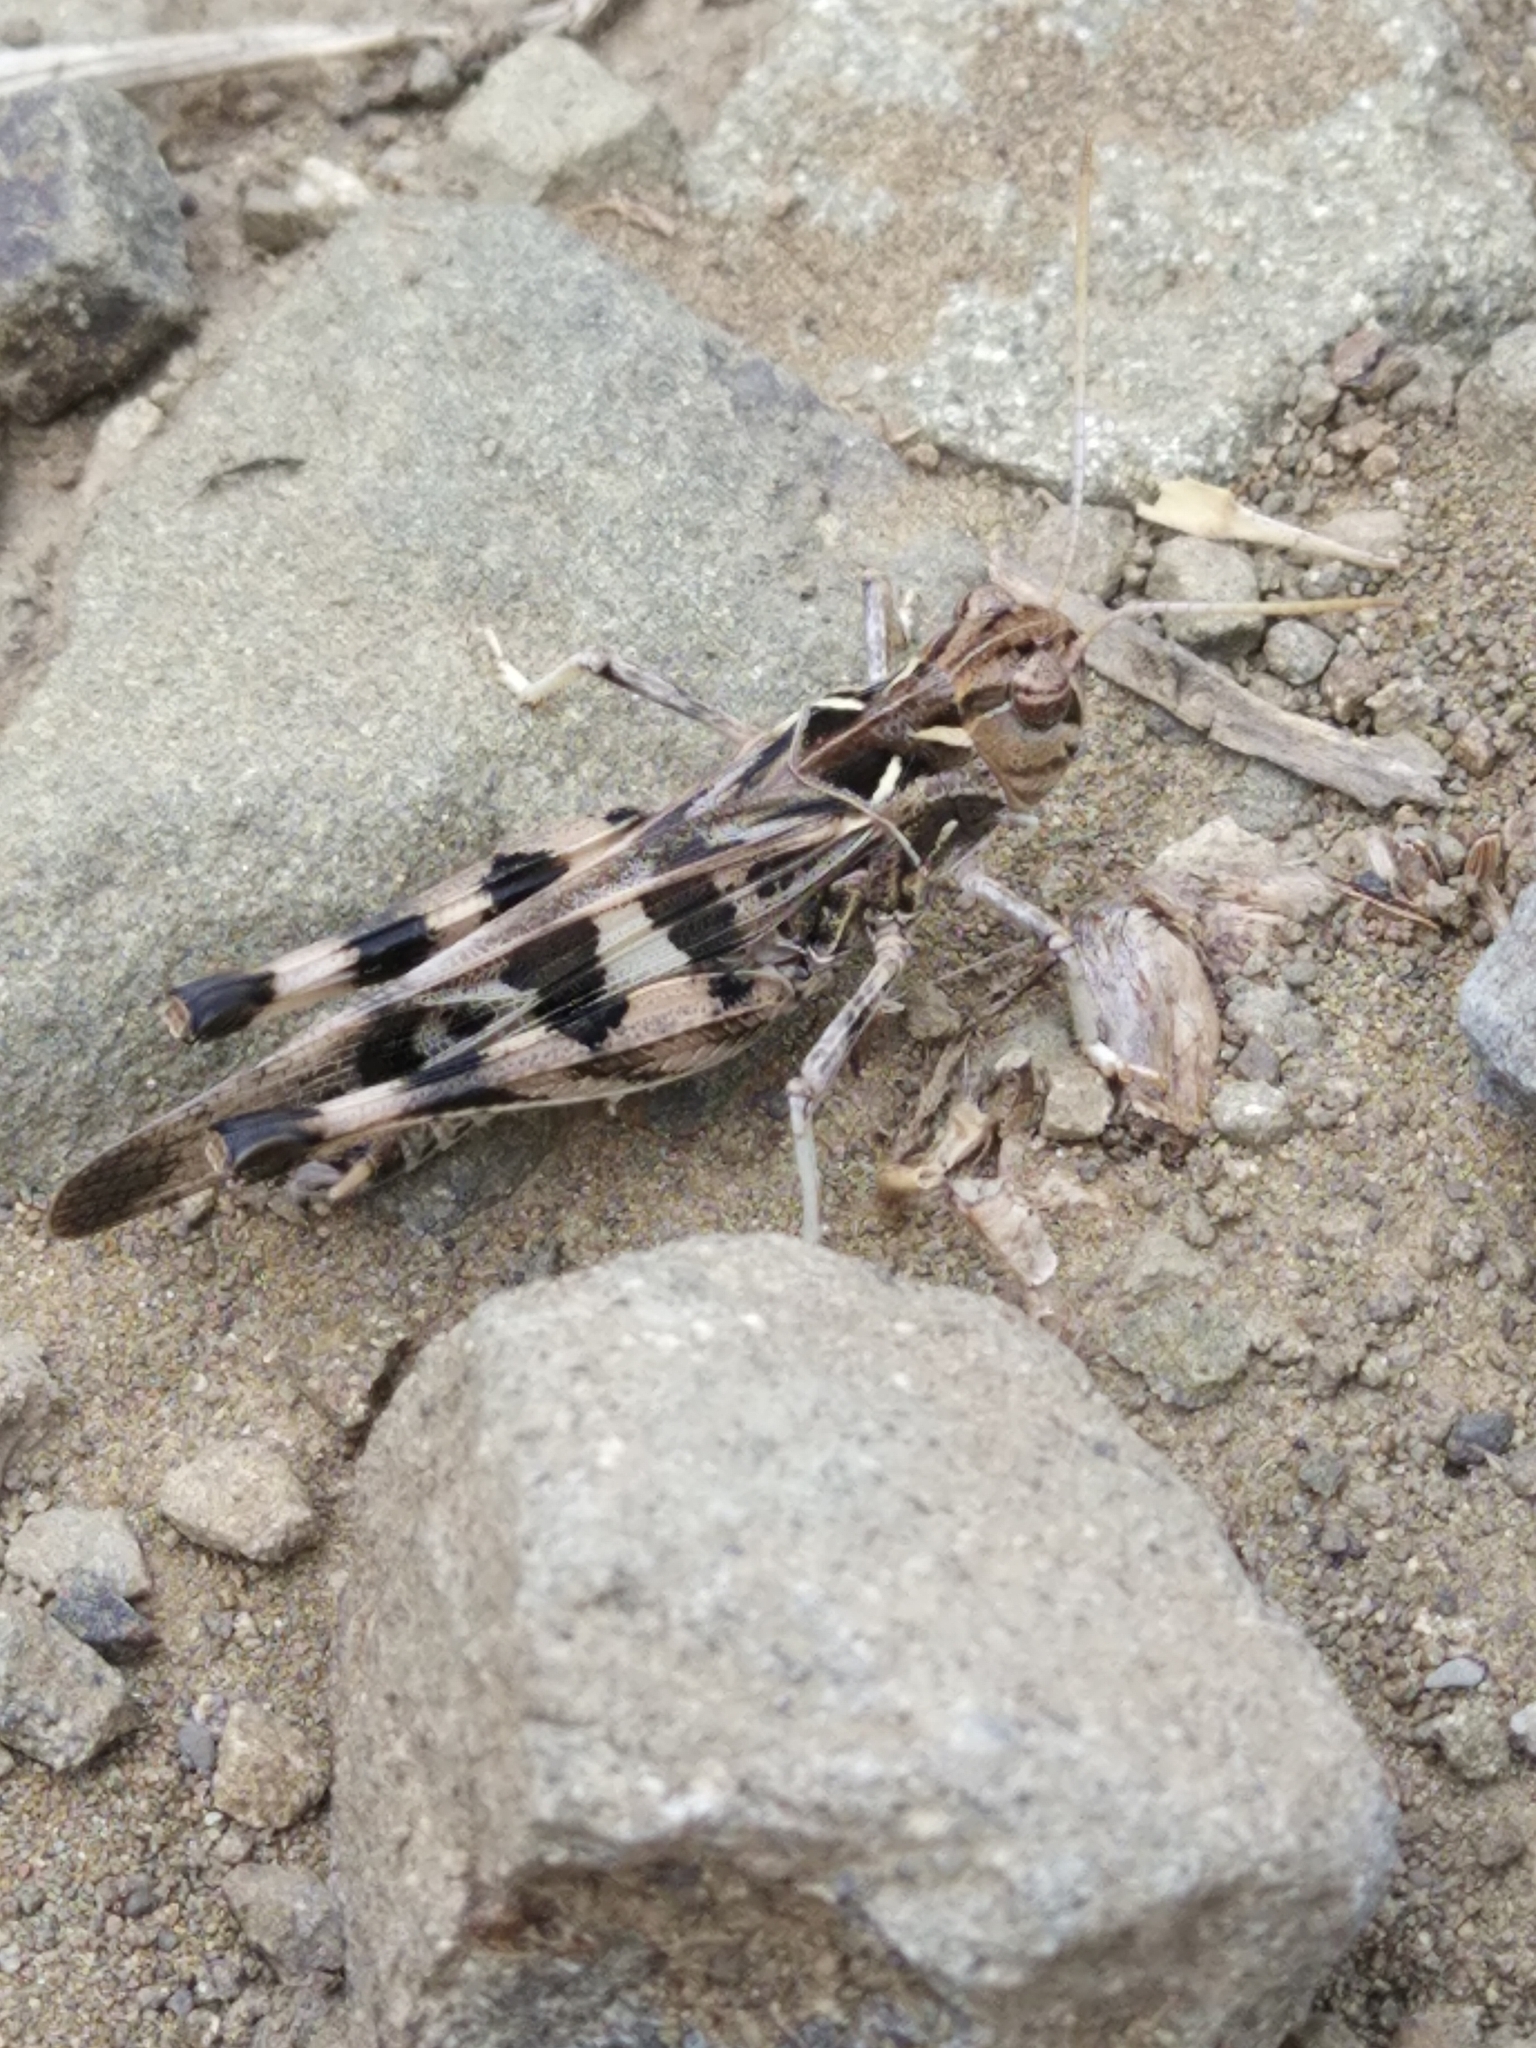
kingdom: Animalia
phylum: Arthropoda
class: Insecta
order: Orthoptera
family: Acrididae
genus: Oedaleus
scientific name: Oedaleus decorus
